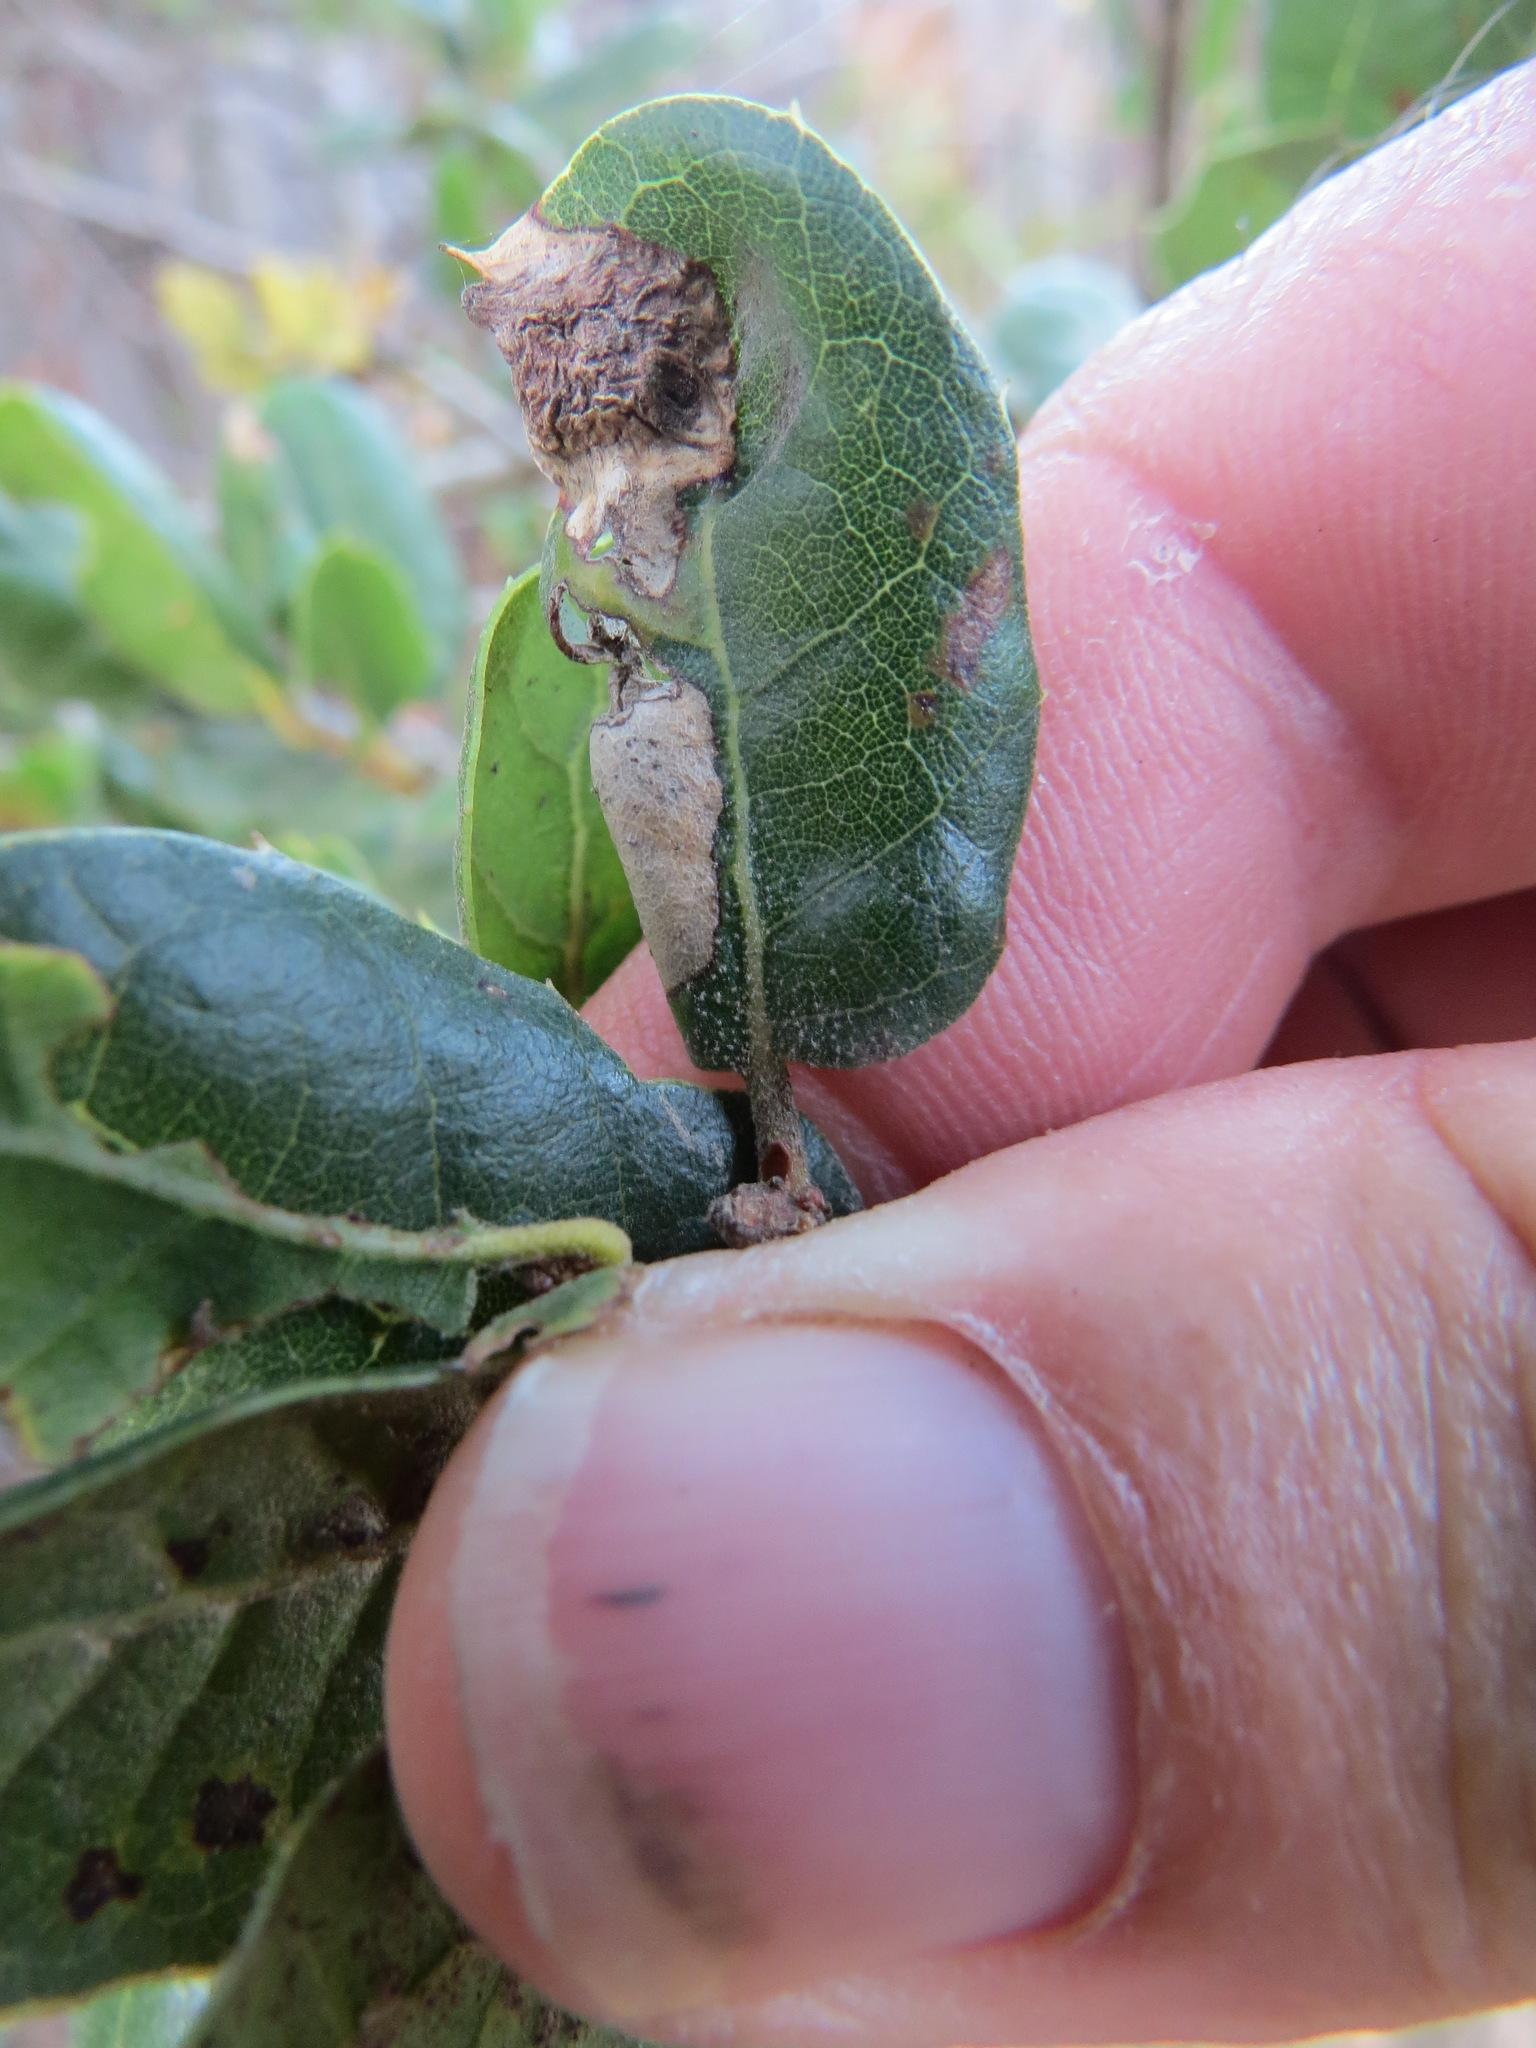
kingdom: Animalia
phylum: Arthropoda
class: Insecta
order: Hymenoptera
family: Cynipidae
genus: Callirhytis
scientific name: Callirhytis
